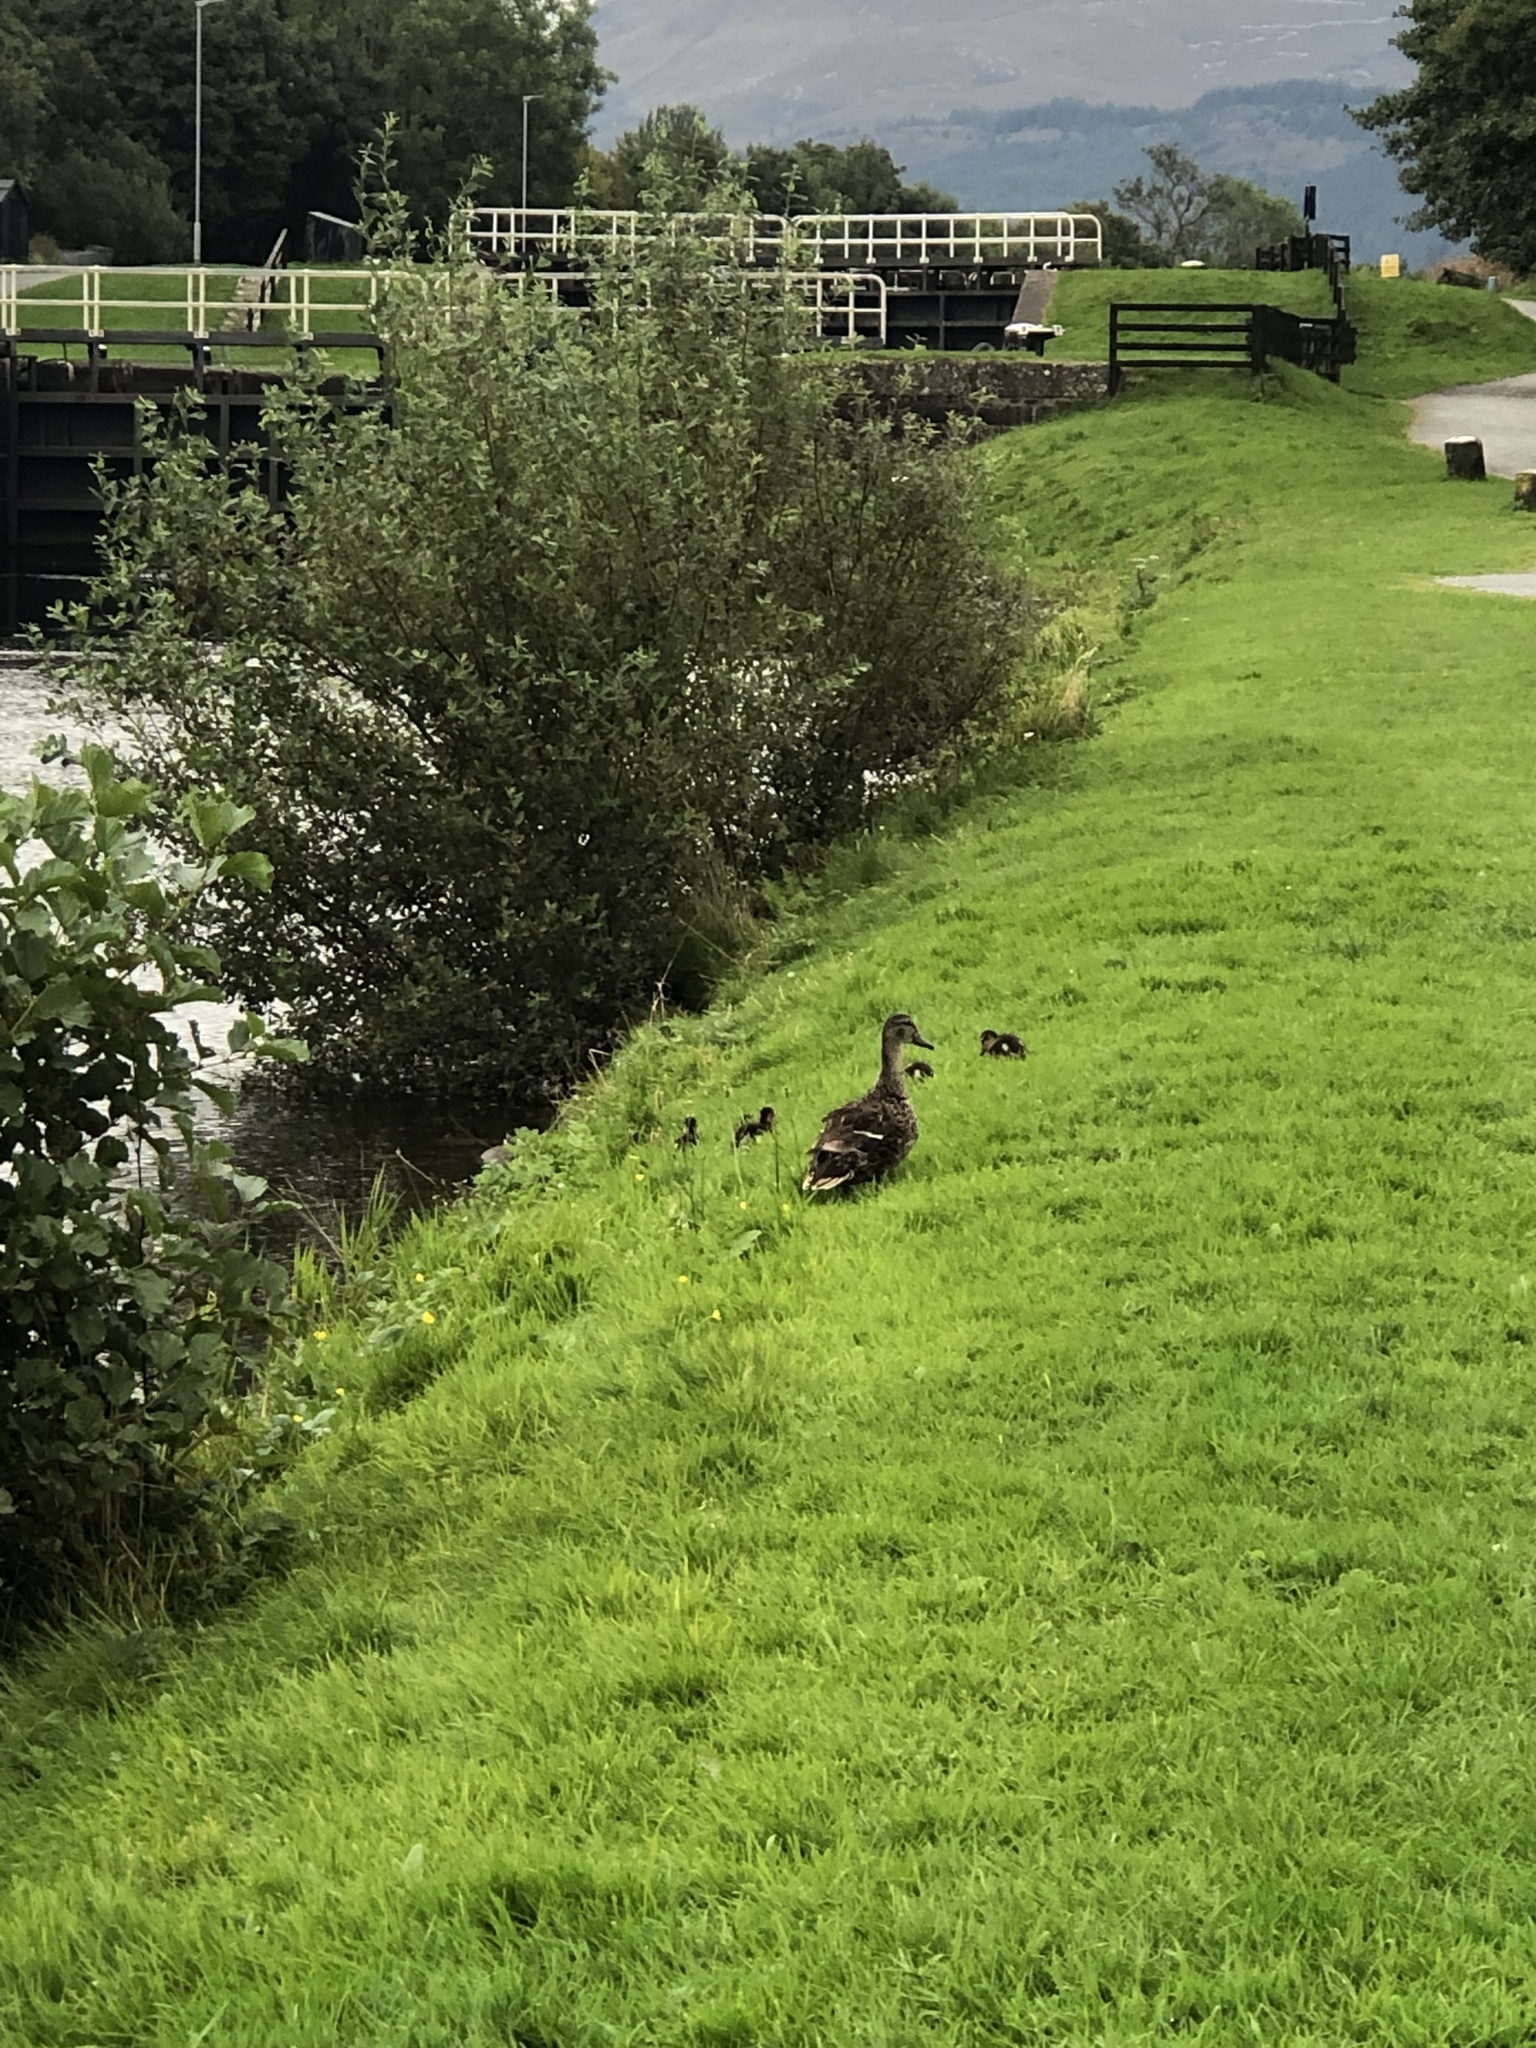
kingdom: Animalia
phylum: Chordata
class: Aves
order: Anseriformes
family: Anatidae
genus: Anas
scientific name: Anas platyrhynchos
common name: Mallard
